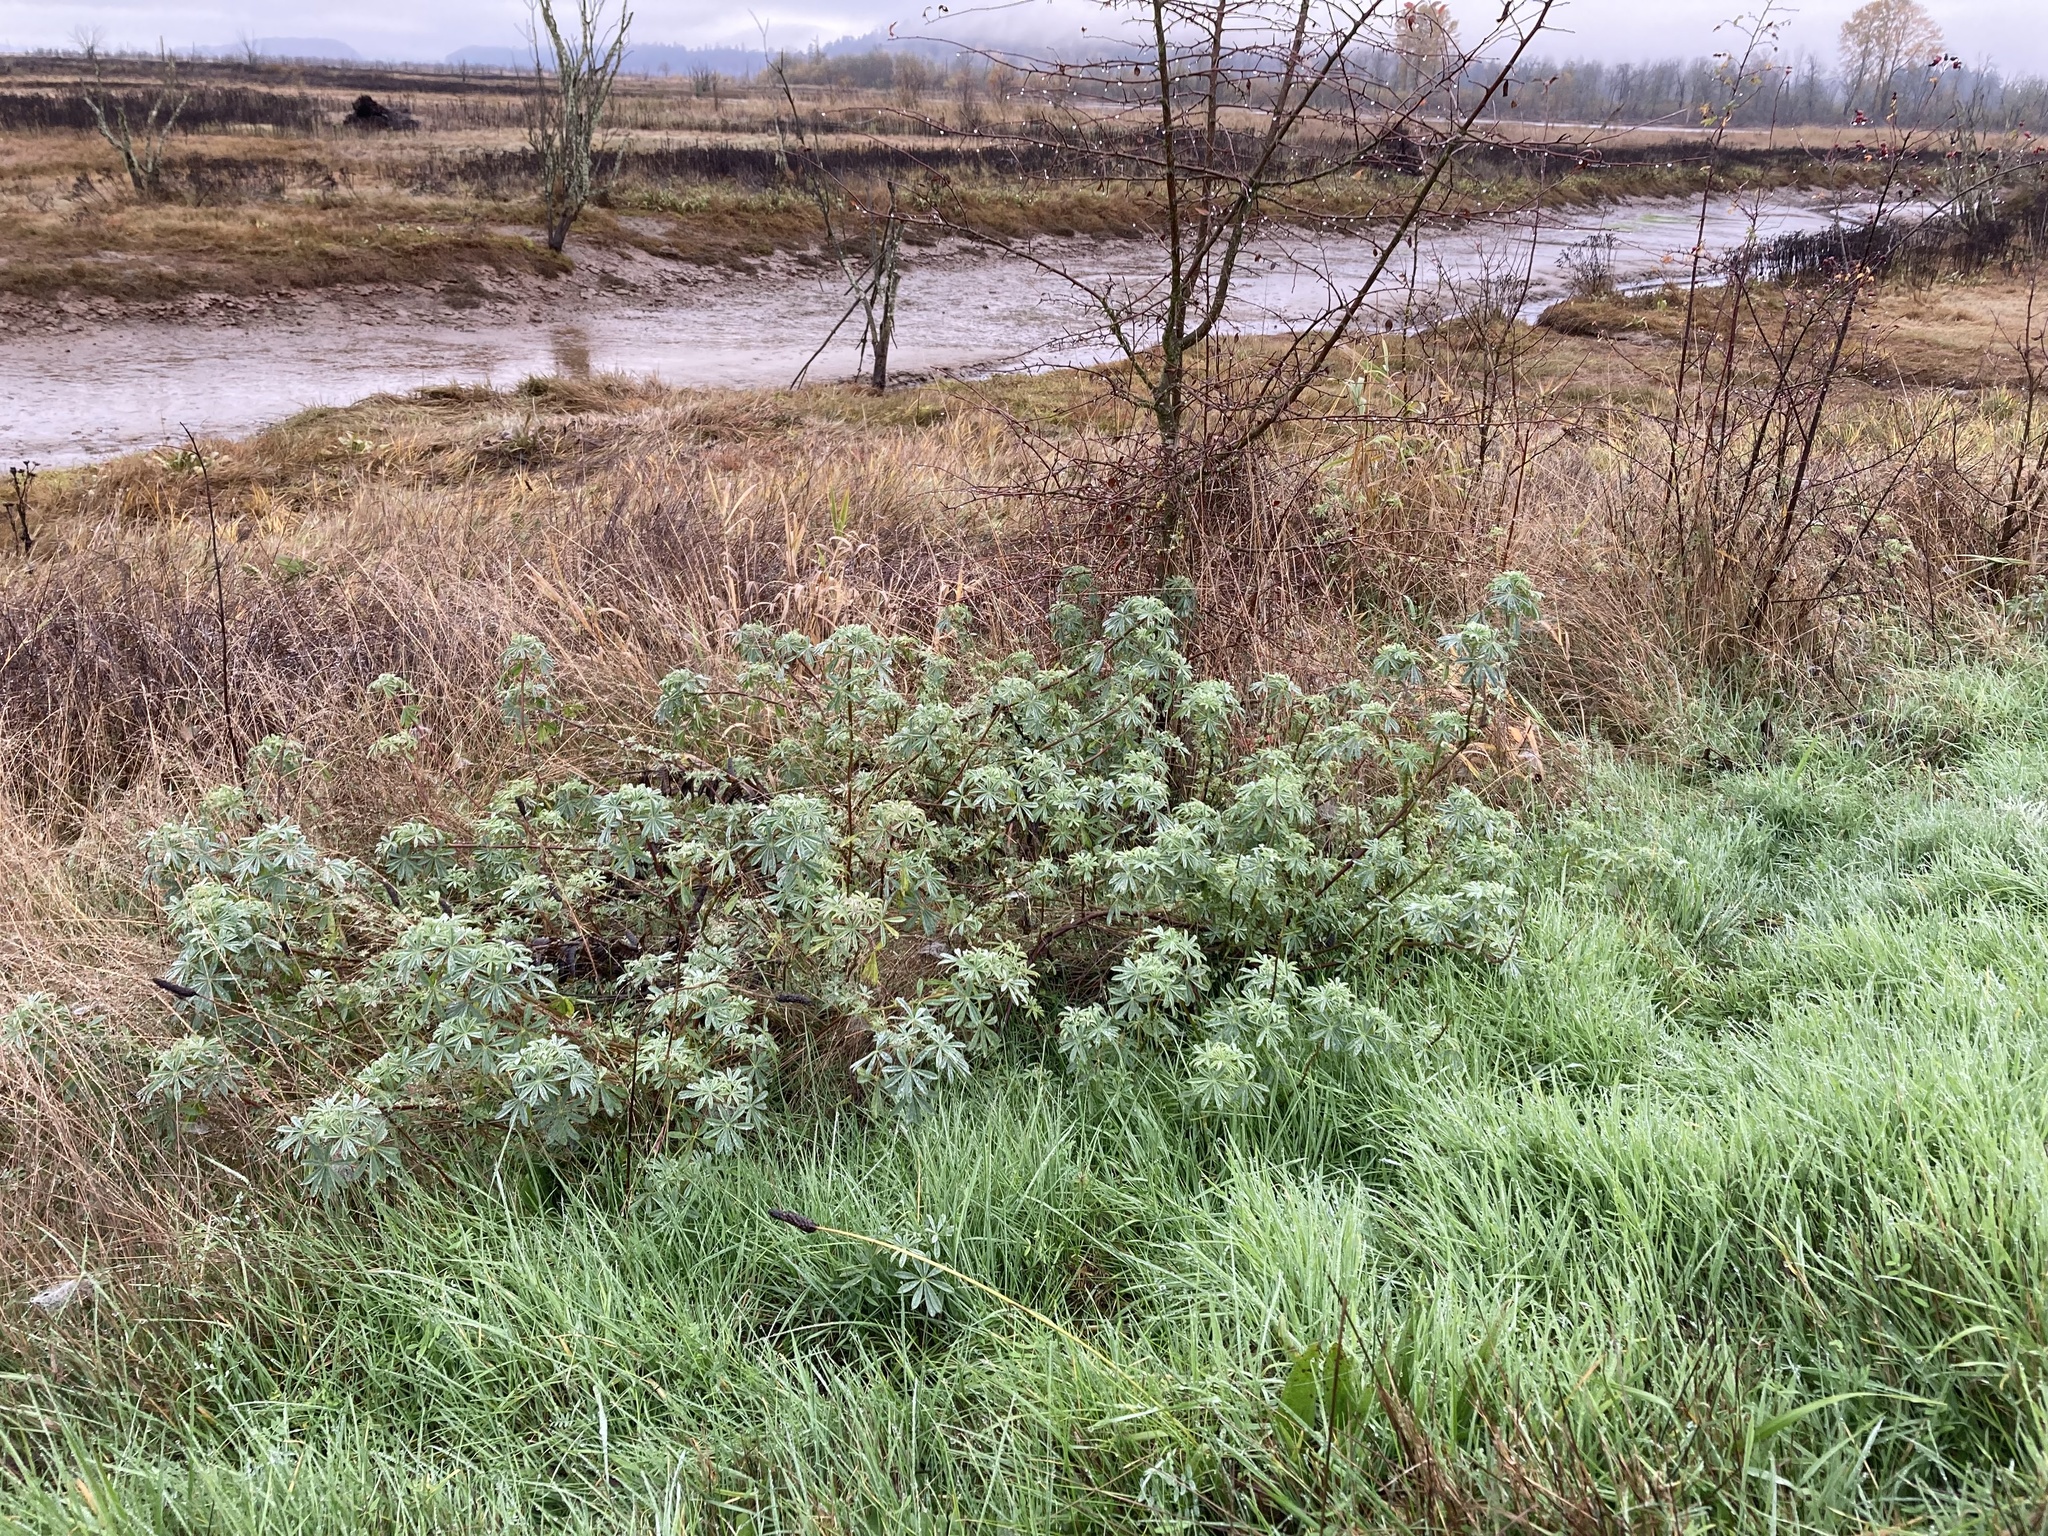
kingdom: Plantae
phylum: Tracheophyta
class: Magnoliopsida
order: Fabales
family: Fabaceae
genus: Lupinus
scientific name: Lupinus rivularis
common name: Riverbank lupine
